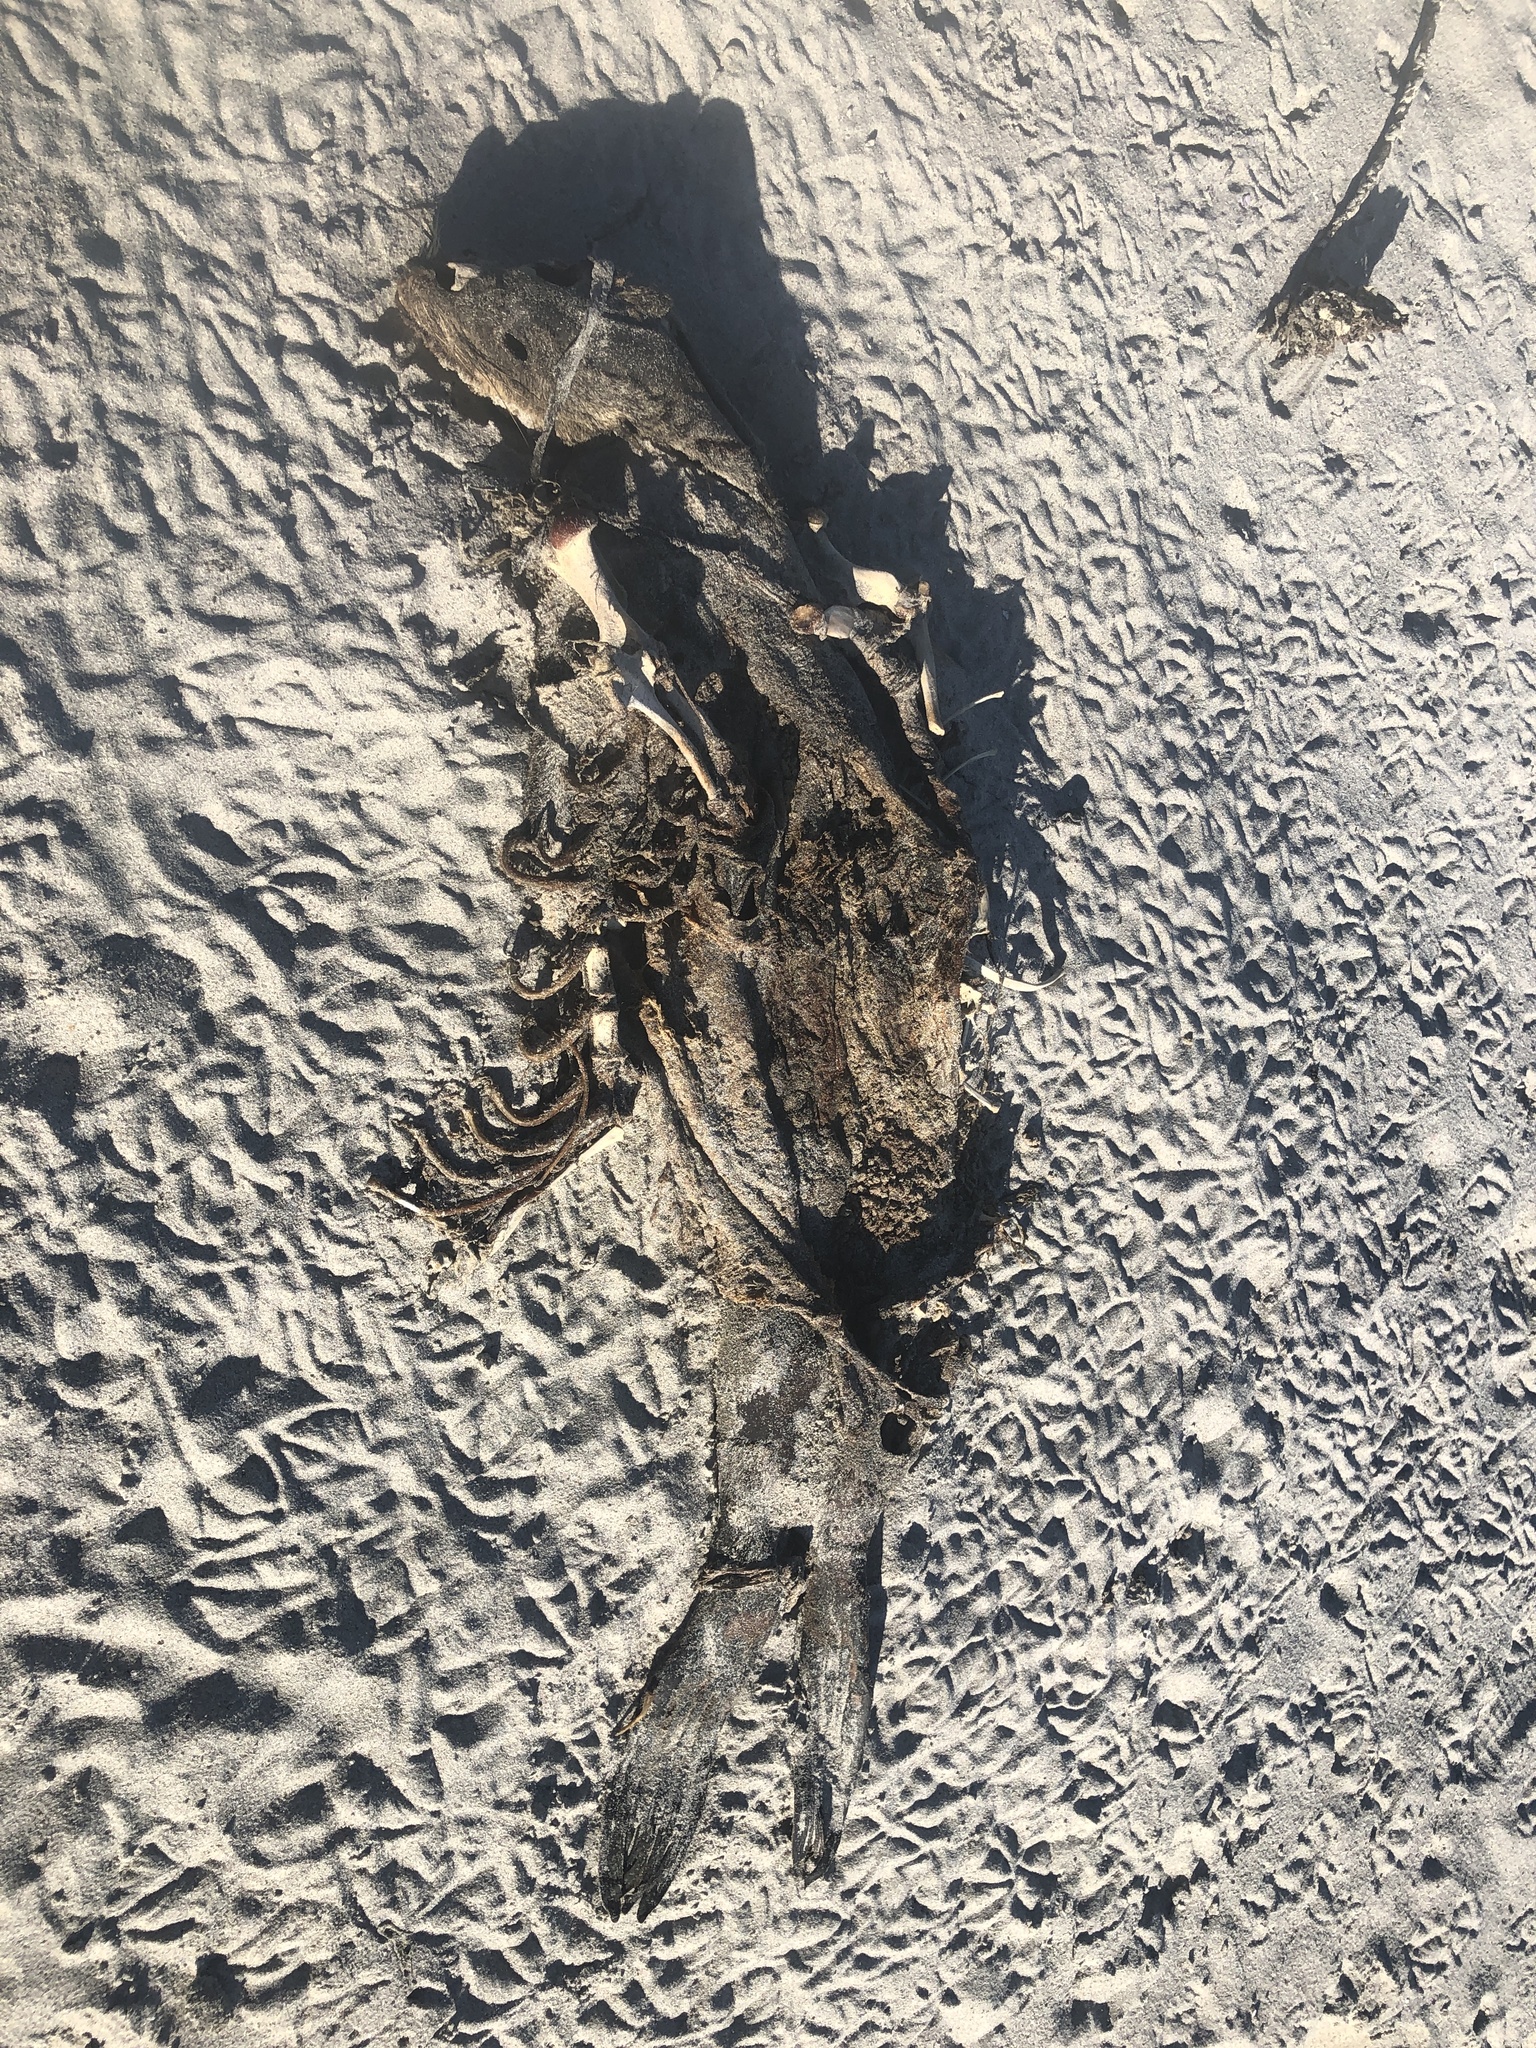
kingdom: Animalia
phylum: Chordata
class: Mammalia
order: Carnivora
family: Otariidae
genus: Arctocephalus
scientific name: Arctocephalus pusillus
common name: Brown fur seal
